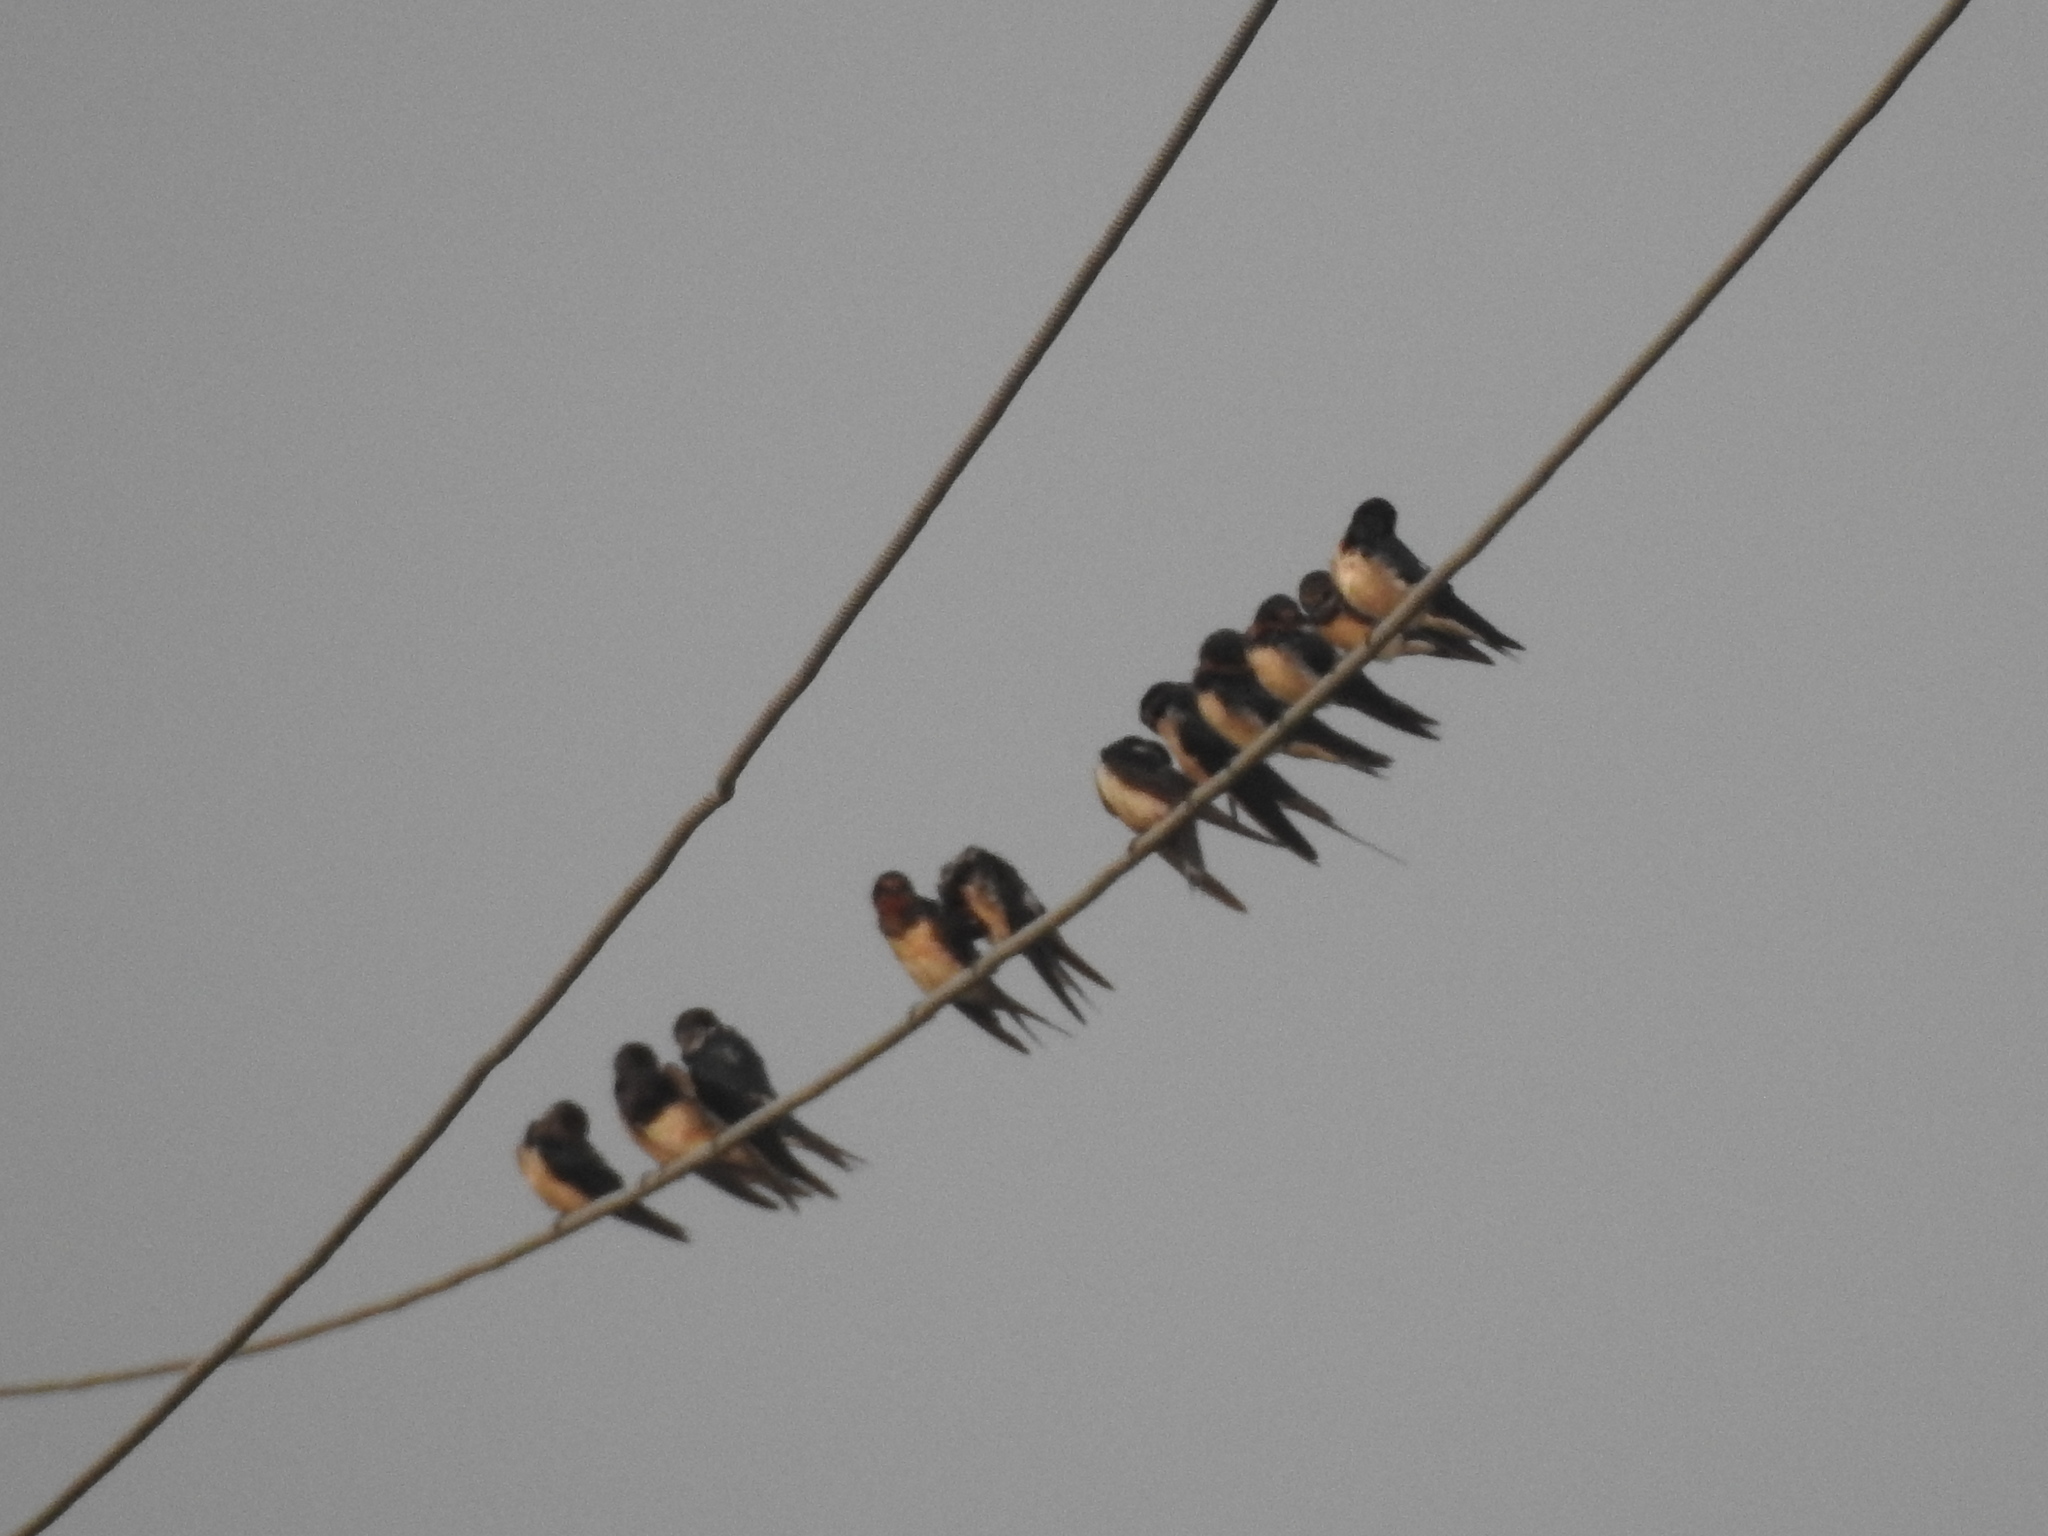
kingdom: Animalia
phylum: Chordata
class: Aves
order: Passeriformes
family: Hirundinidae
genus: Hirundo
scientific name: Hirundo rustica
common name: Barn swallow
